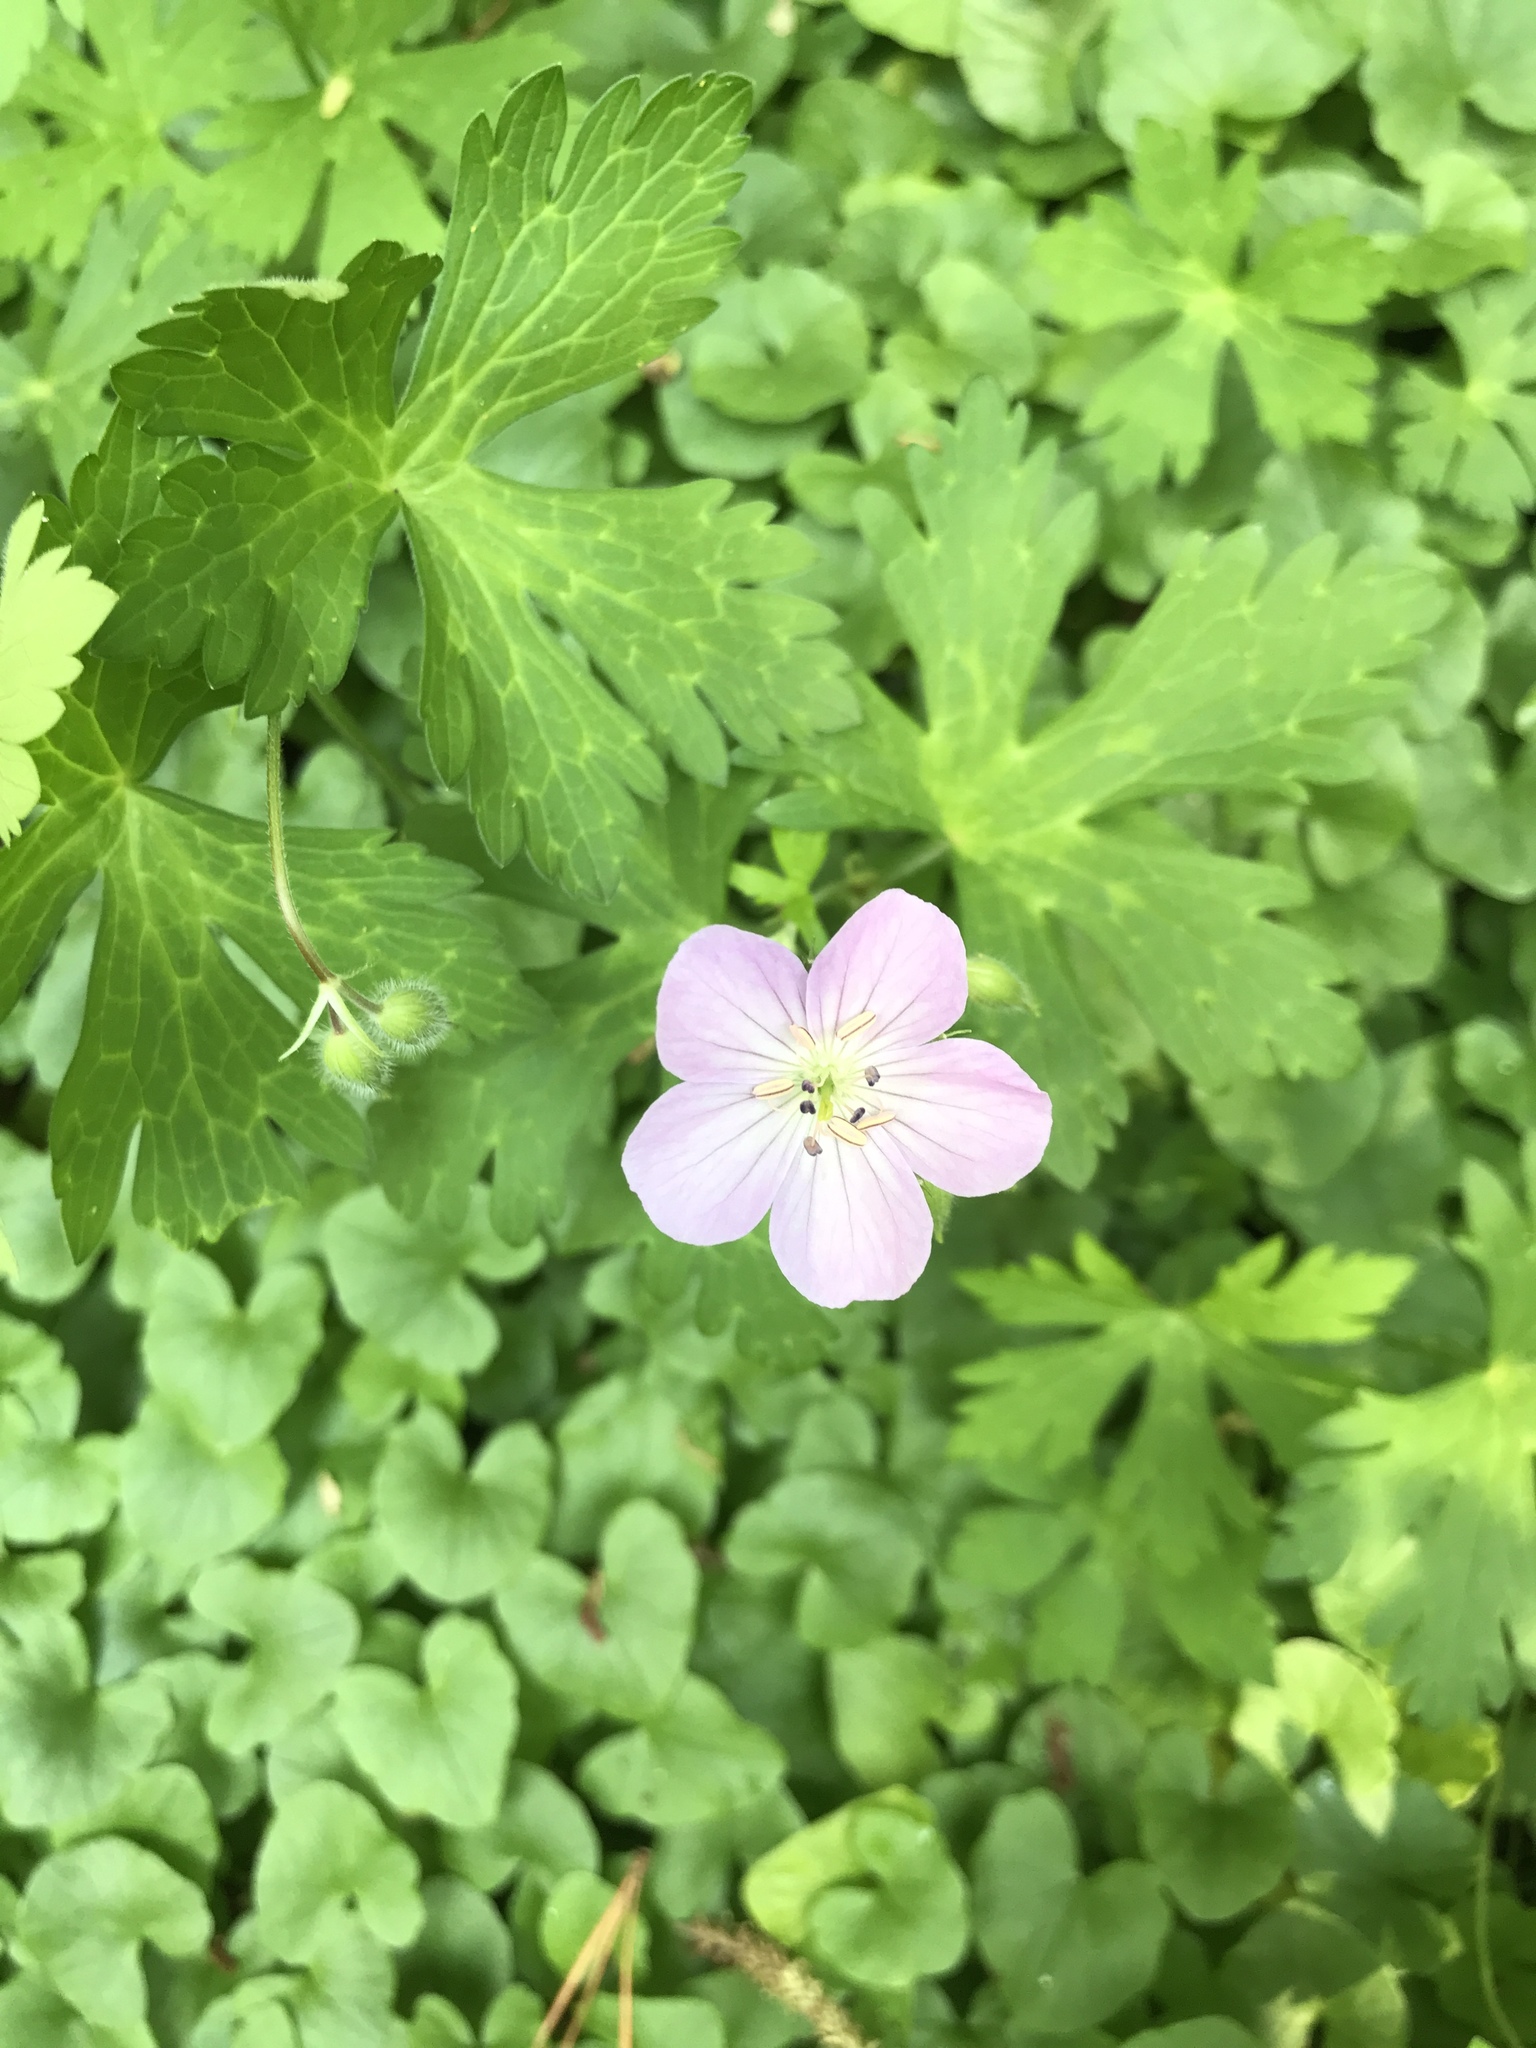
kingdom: Plantae
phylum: Tracheophyta
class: Magnoliopsida
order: Geraniales
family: Geraniaceae
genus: Geranium
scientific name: Geranium maculatum
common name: Spotted geranium
